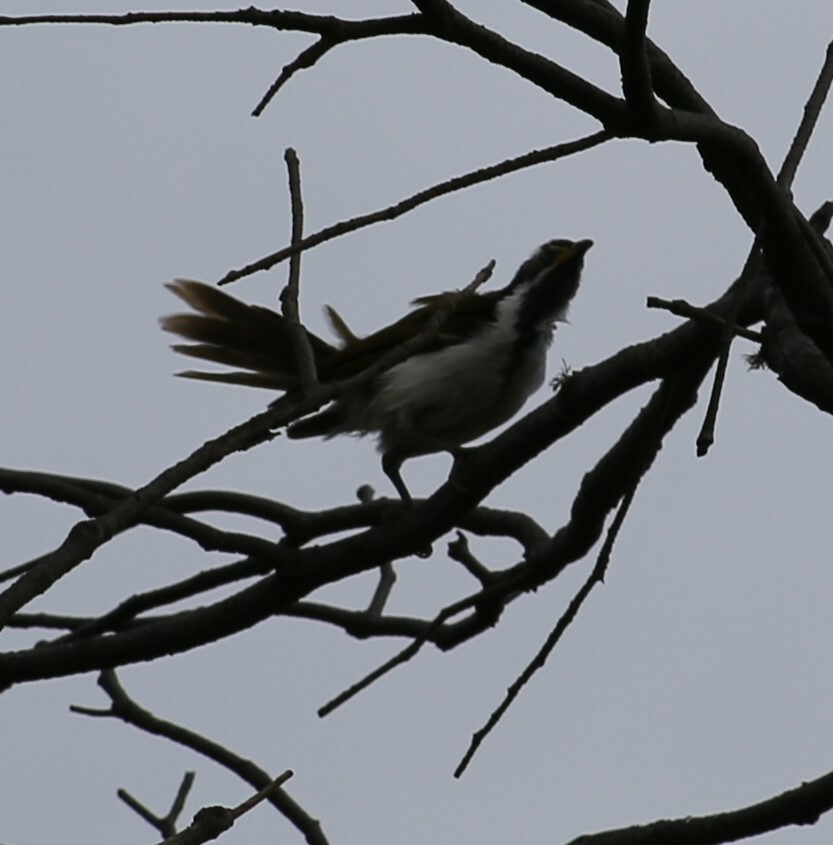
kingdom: Animalia
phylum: Chordata
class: Aves
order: Passeriformes
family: Meliphagidae
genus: Entomyzon
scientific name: Entomyzon cyanotis
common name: Blue-faced honeyeater
